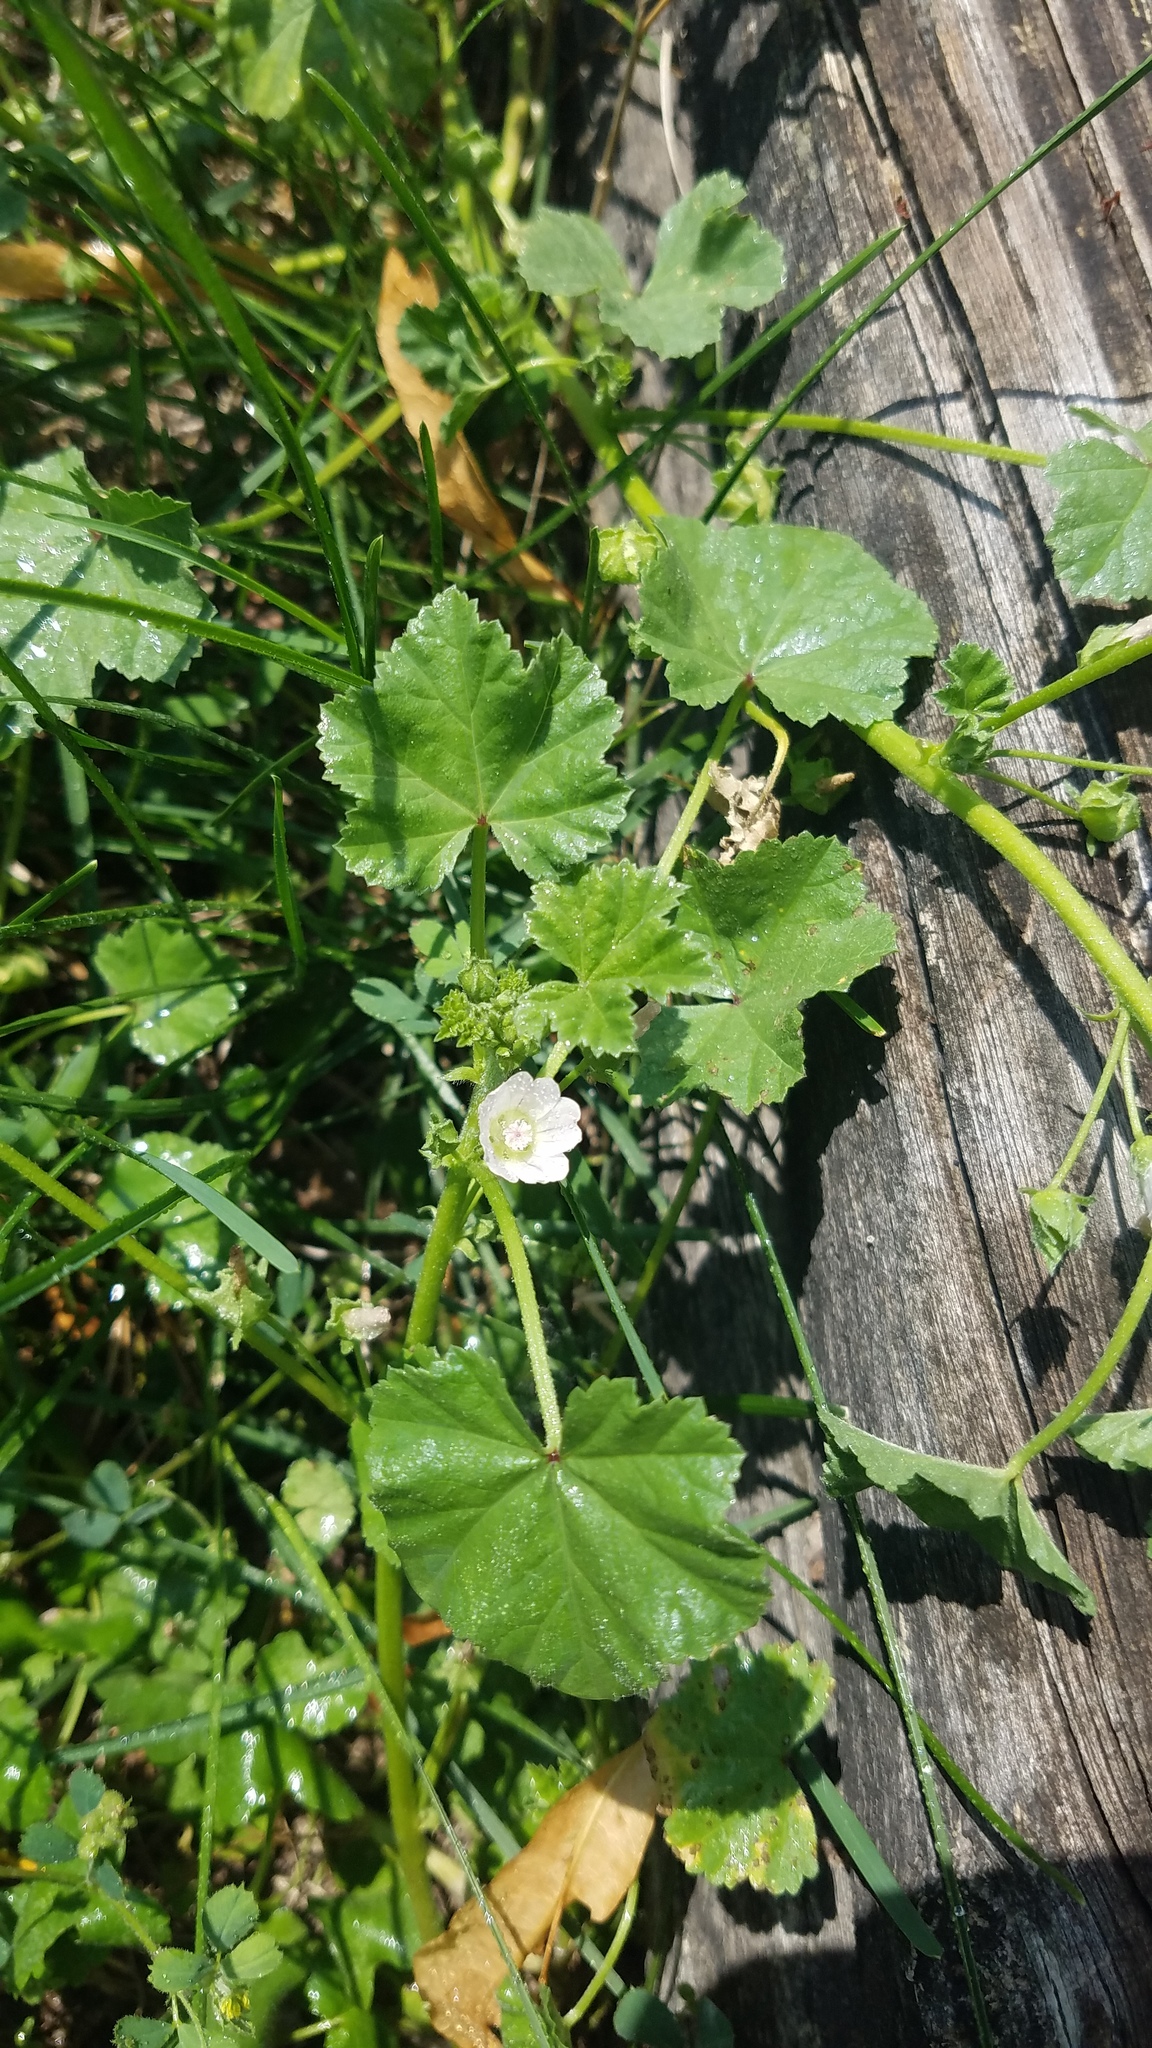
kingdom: Plantae
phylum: Tracheophyta
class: Magnoliopsida
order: Malvales
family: Malvaceae
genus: Malva
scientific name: Malva neglecta
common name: Common mallow
